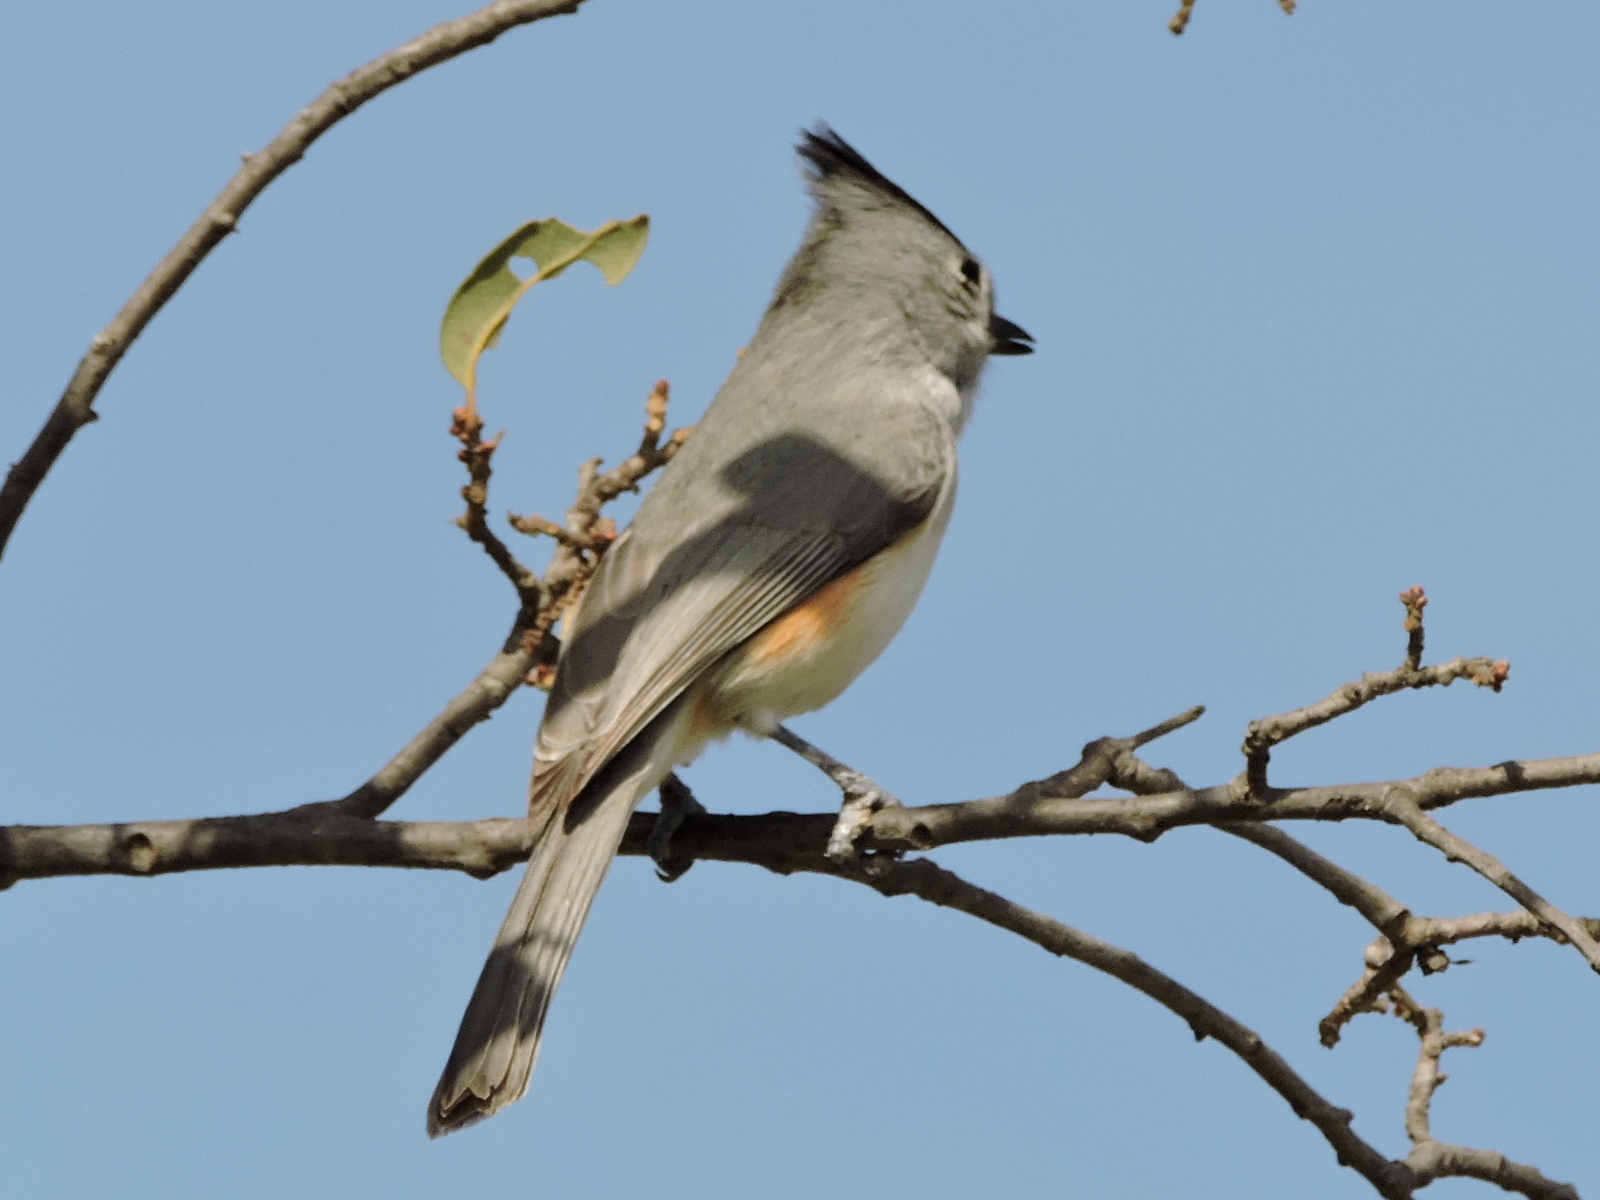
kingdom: Animalia
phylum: Chordata
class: Aves
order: Passeriformes
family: Paridae
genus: Baeolophus
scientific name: Baeolophus atricristatus
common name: Black-crested titmouse
